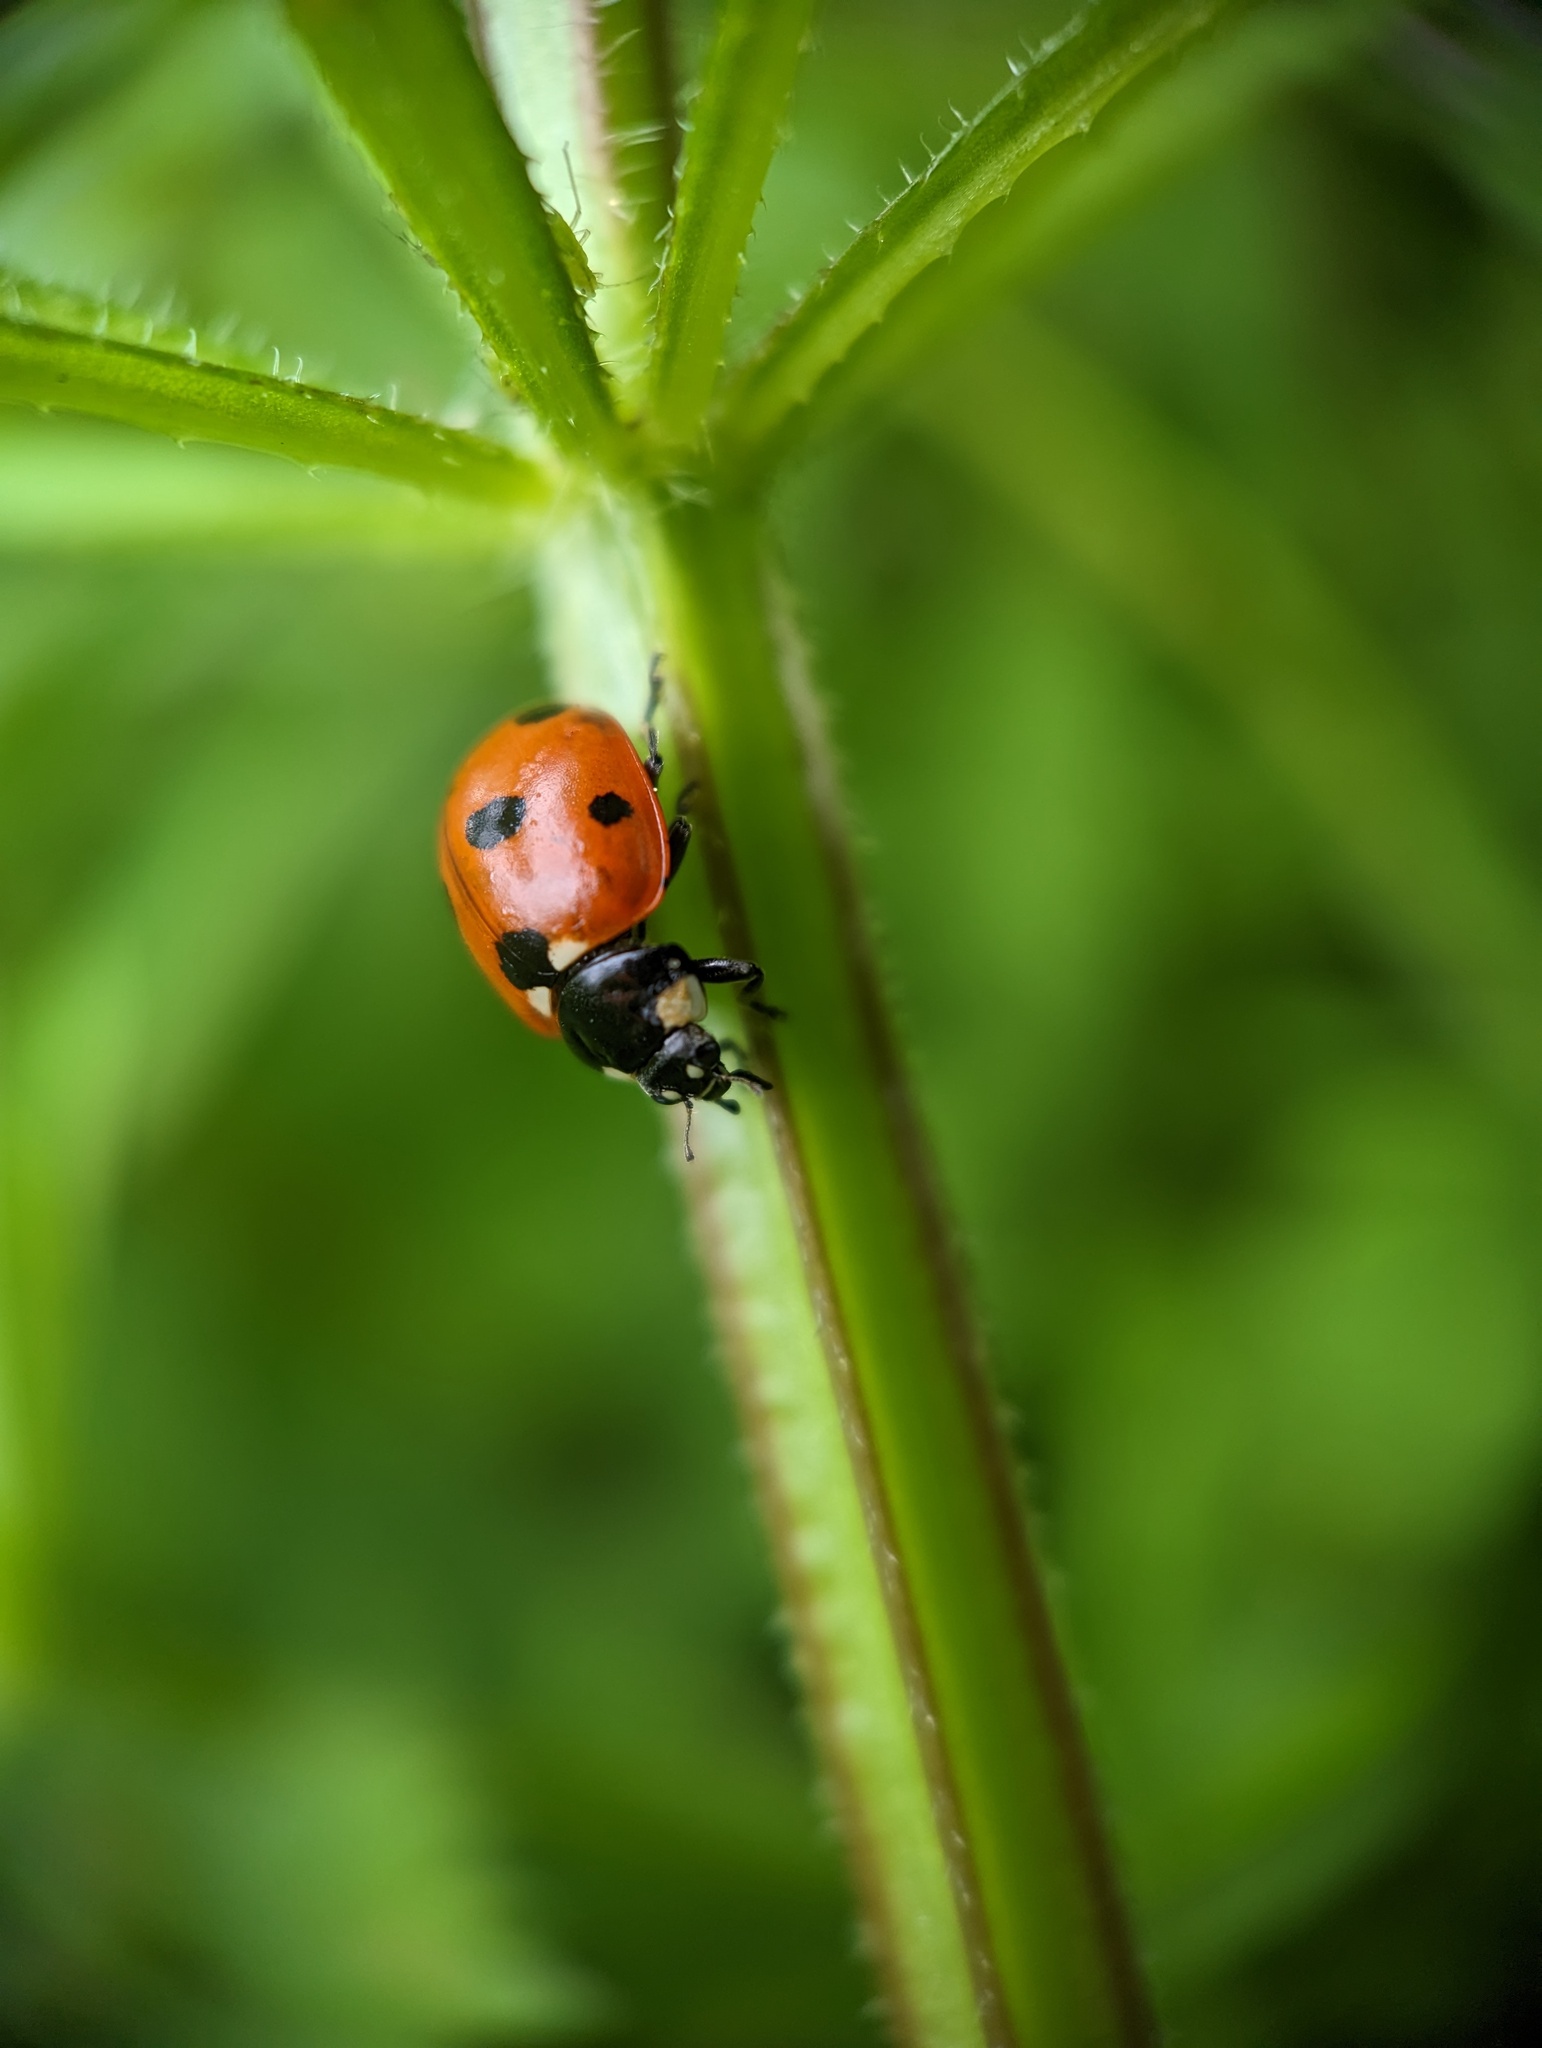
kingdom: Animalia
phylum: Arthropoda
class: Insecta
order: Coleoptera
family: Coccinellidae
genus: Coccinella
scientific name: Coccinella septempunctata
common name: Sevenspotted lady beetle
